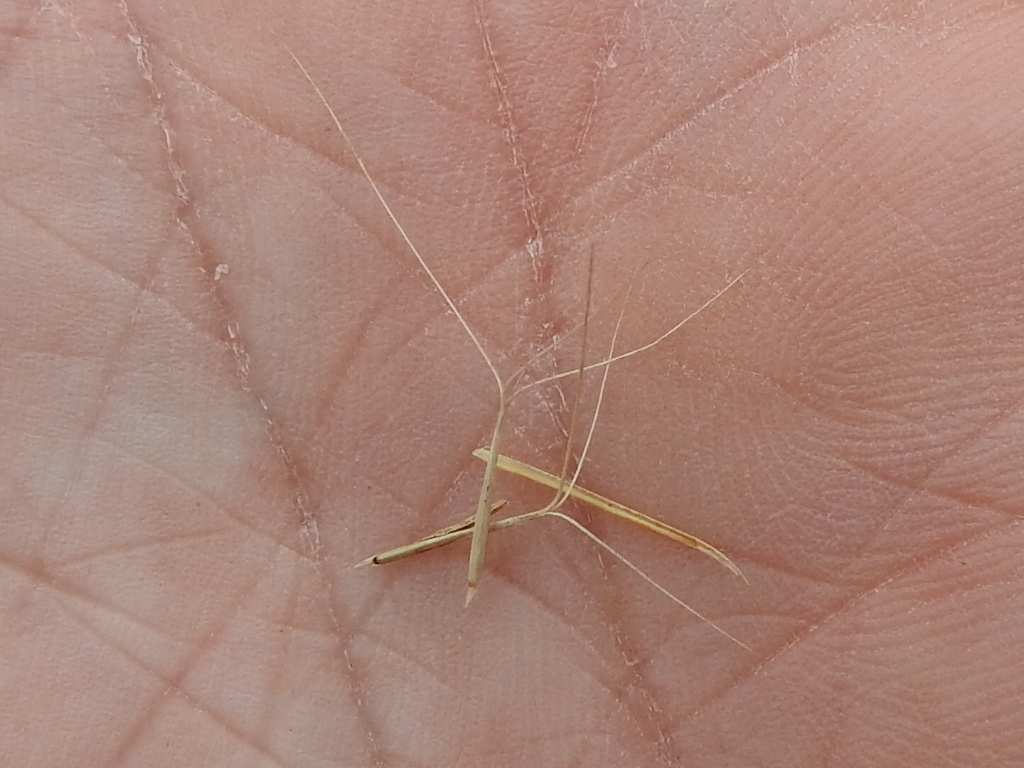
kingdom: Plantae
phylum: Tracheophyta
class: Liliopsida
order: Poales
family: Poaceae
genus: Aristida
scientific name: Aristida beyrichiana
